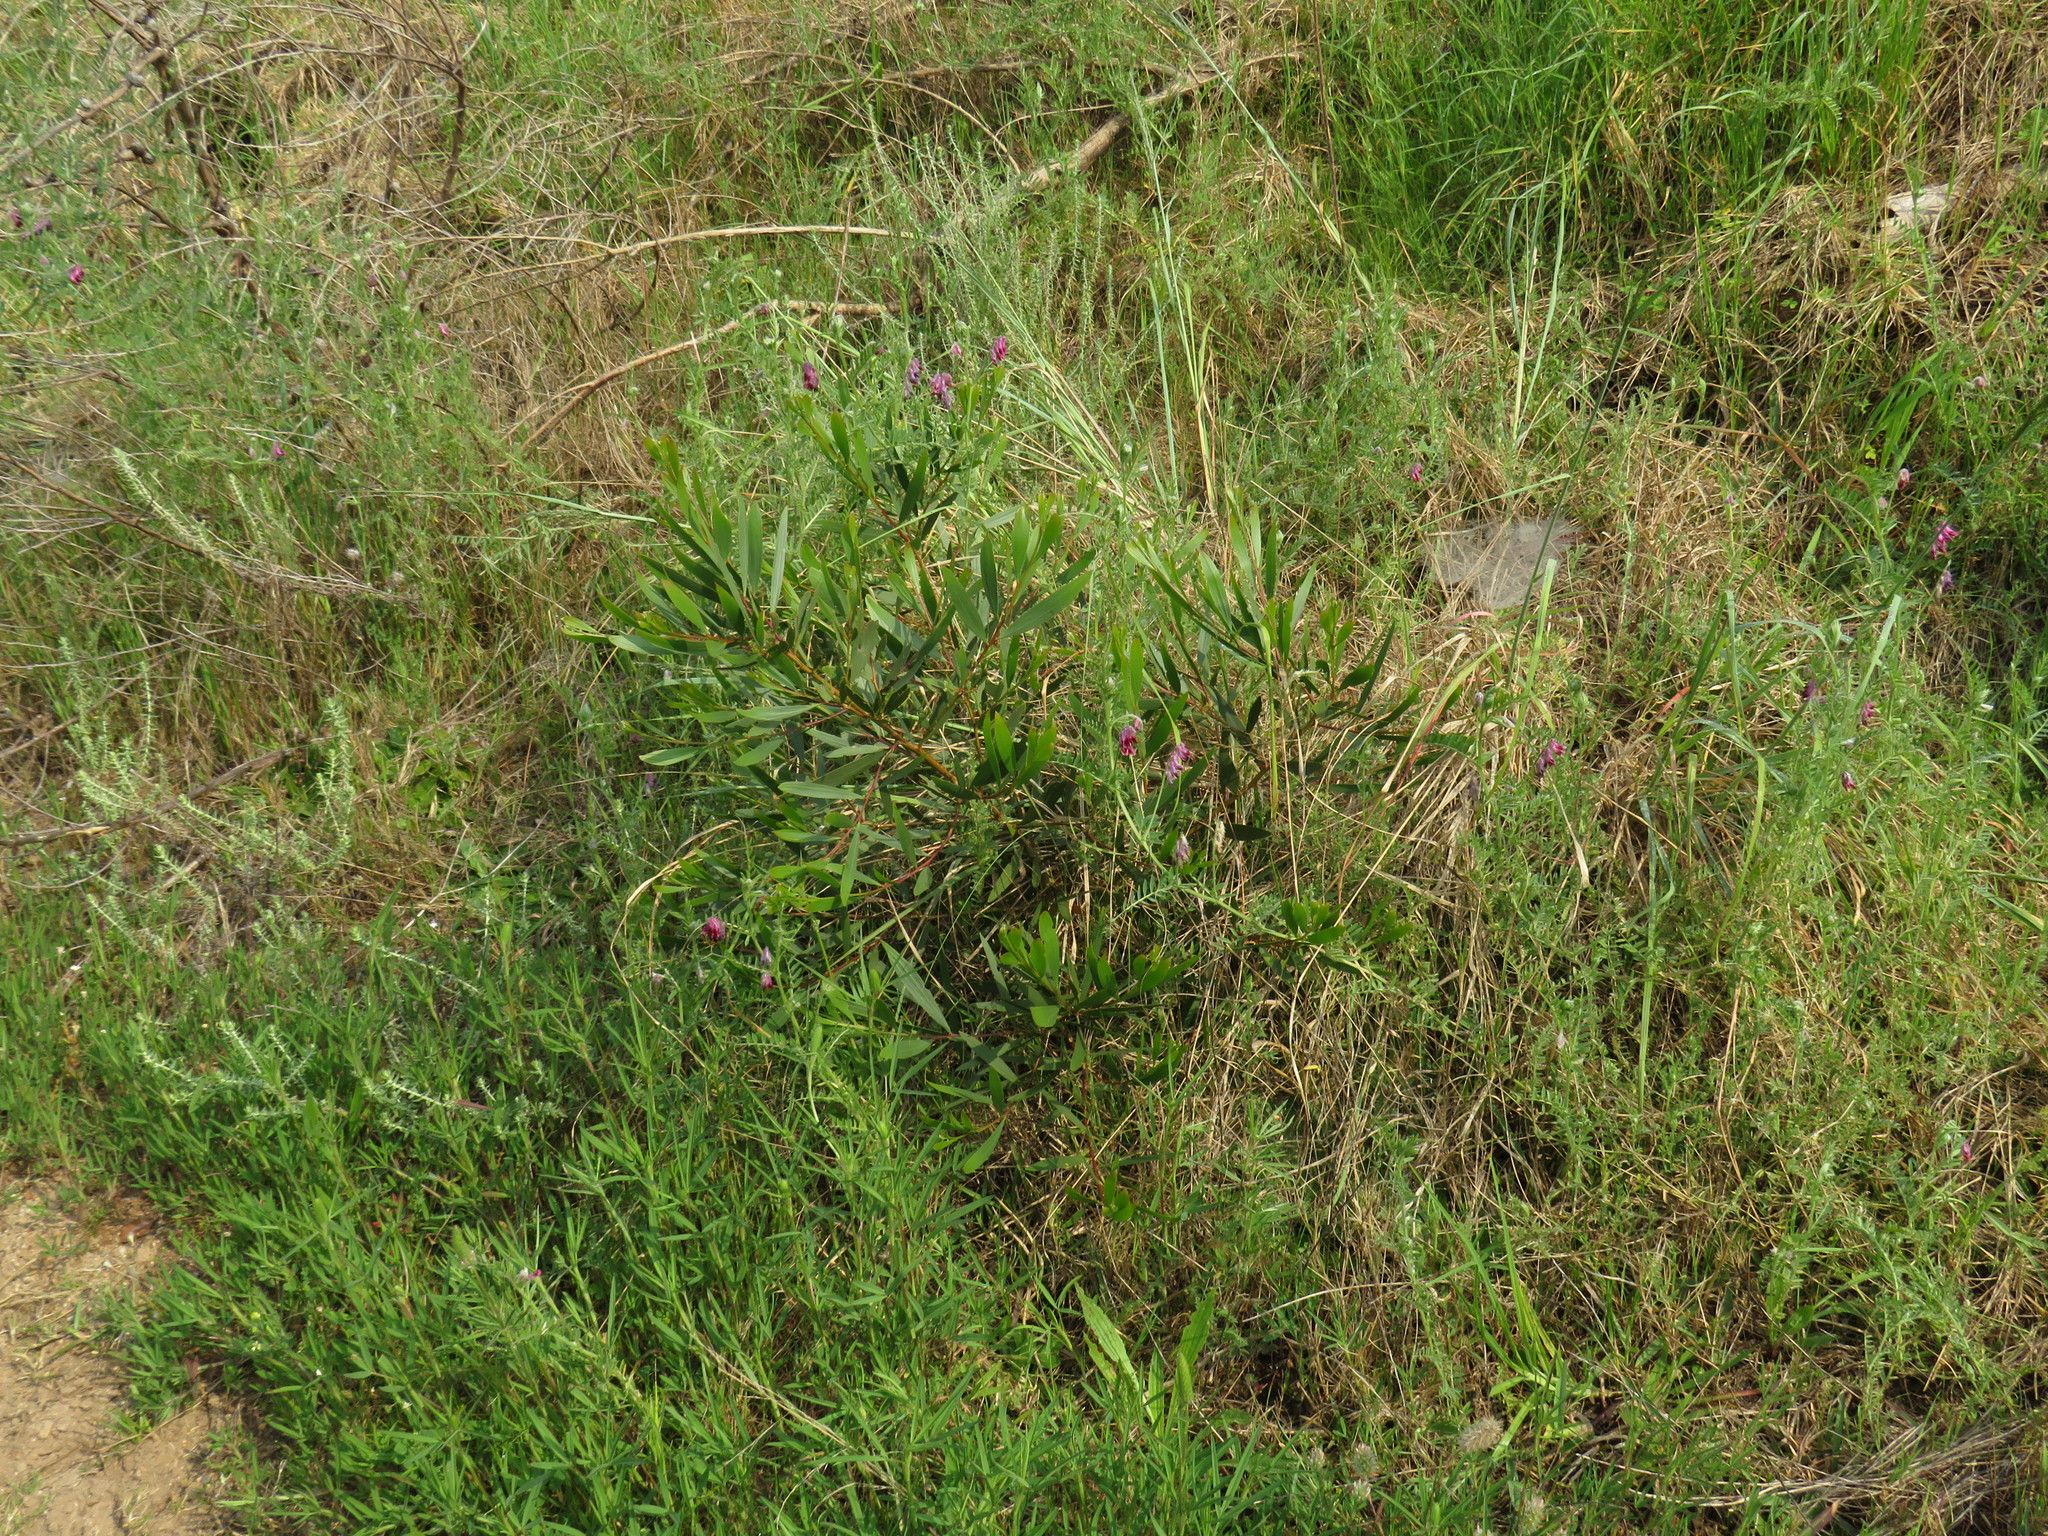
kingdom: Plantae
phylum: Tracheophyta
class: Magnoliopsida
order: Fabales
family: Fabaceae
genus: Acacia
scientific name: Acacia longifolia
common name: Sydney golden wattle
